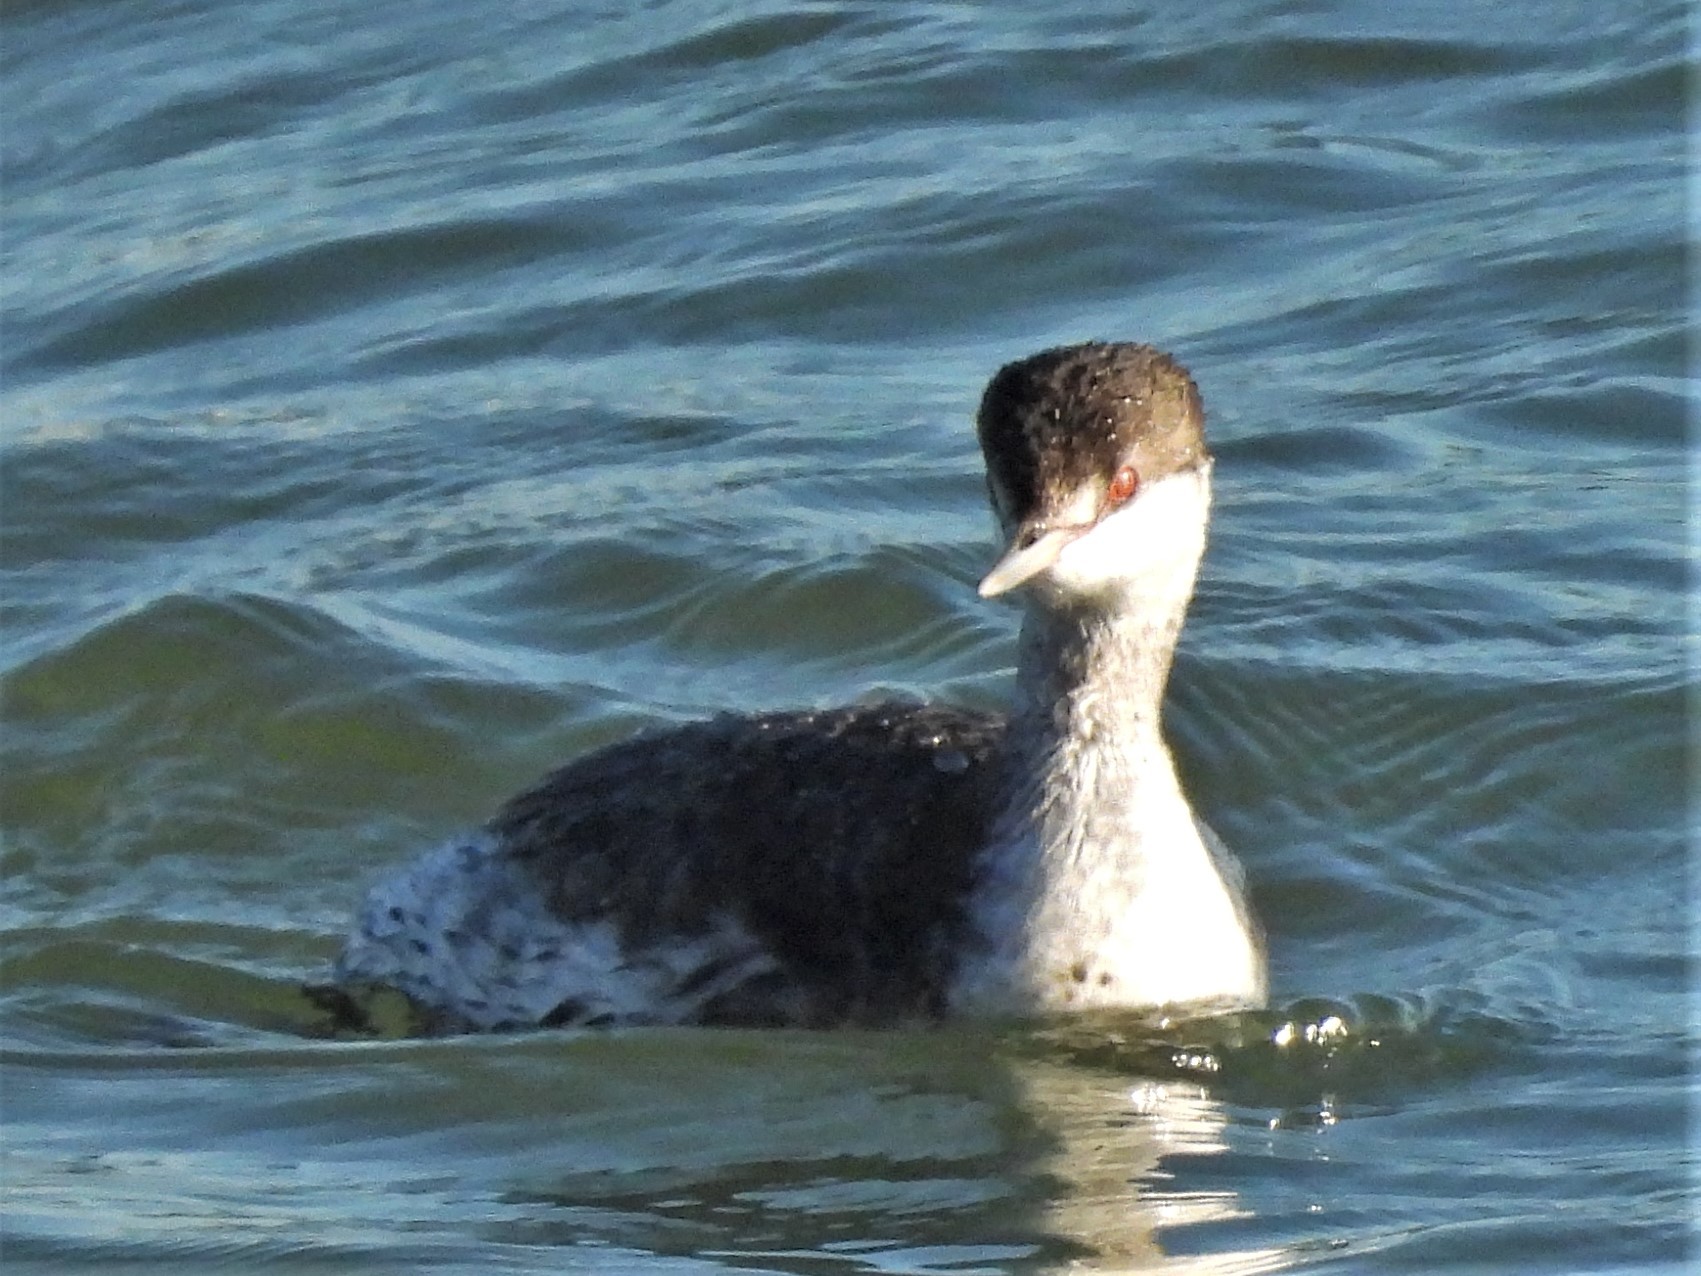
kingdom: Animalia
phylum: Chordata
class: Aves
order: Podicipediformes
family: Podicipedidae
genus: Podiceps
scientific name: Podiceps auritus
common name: Horned grebe
